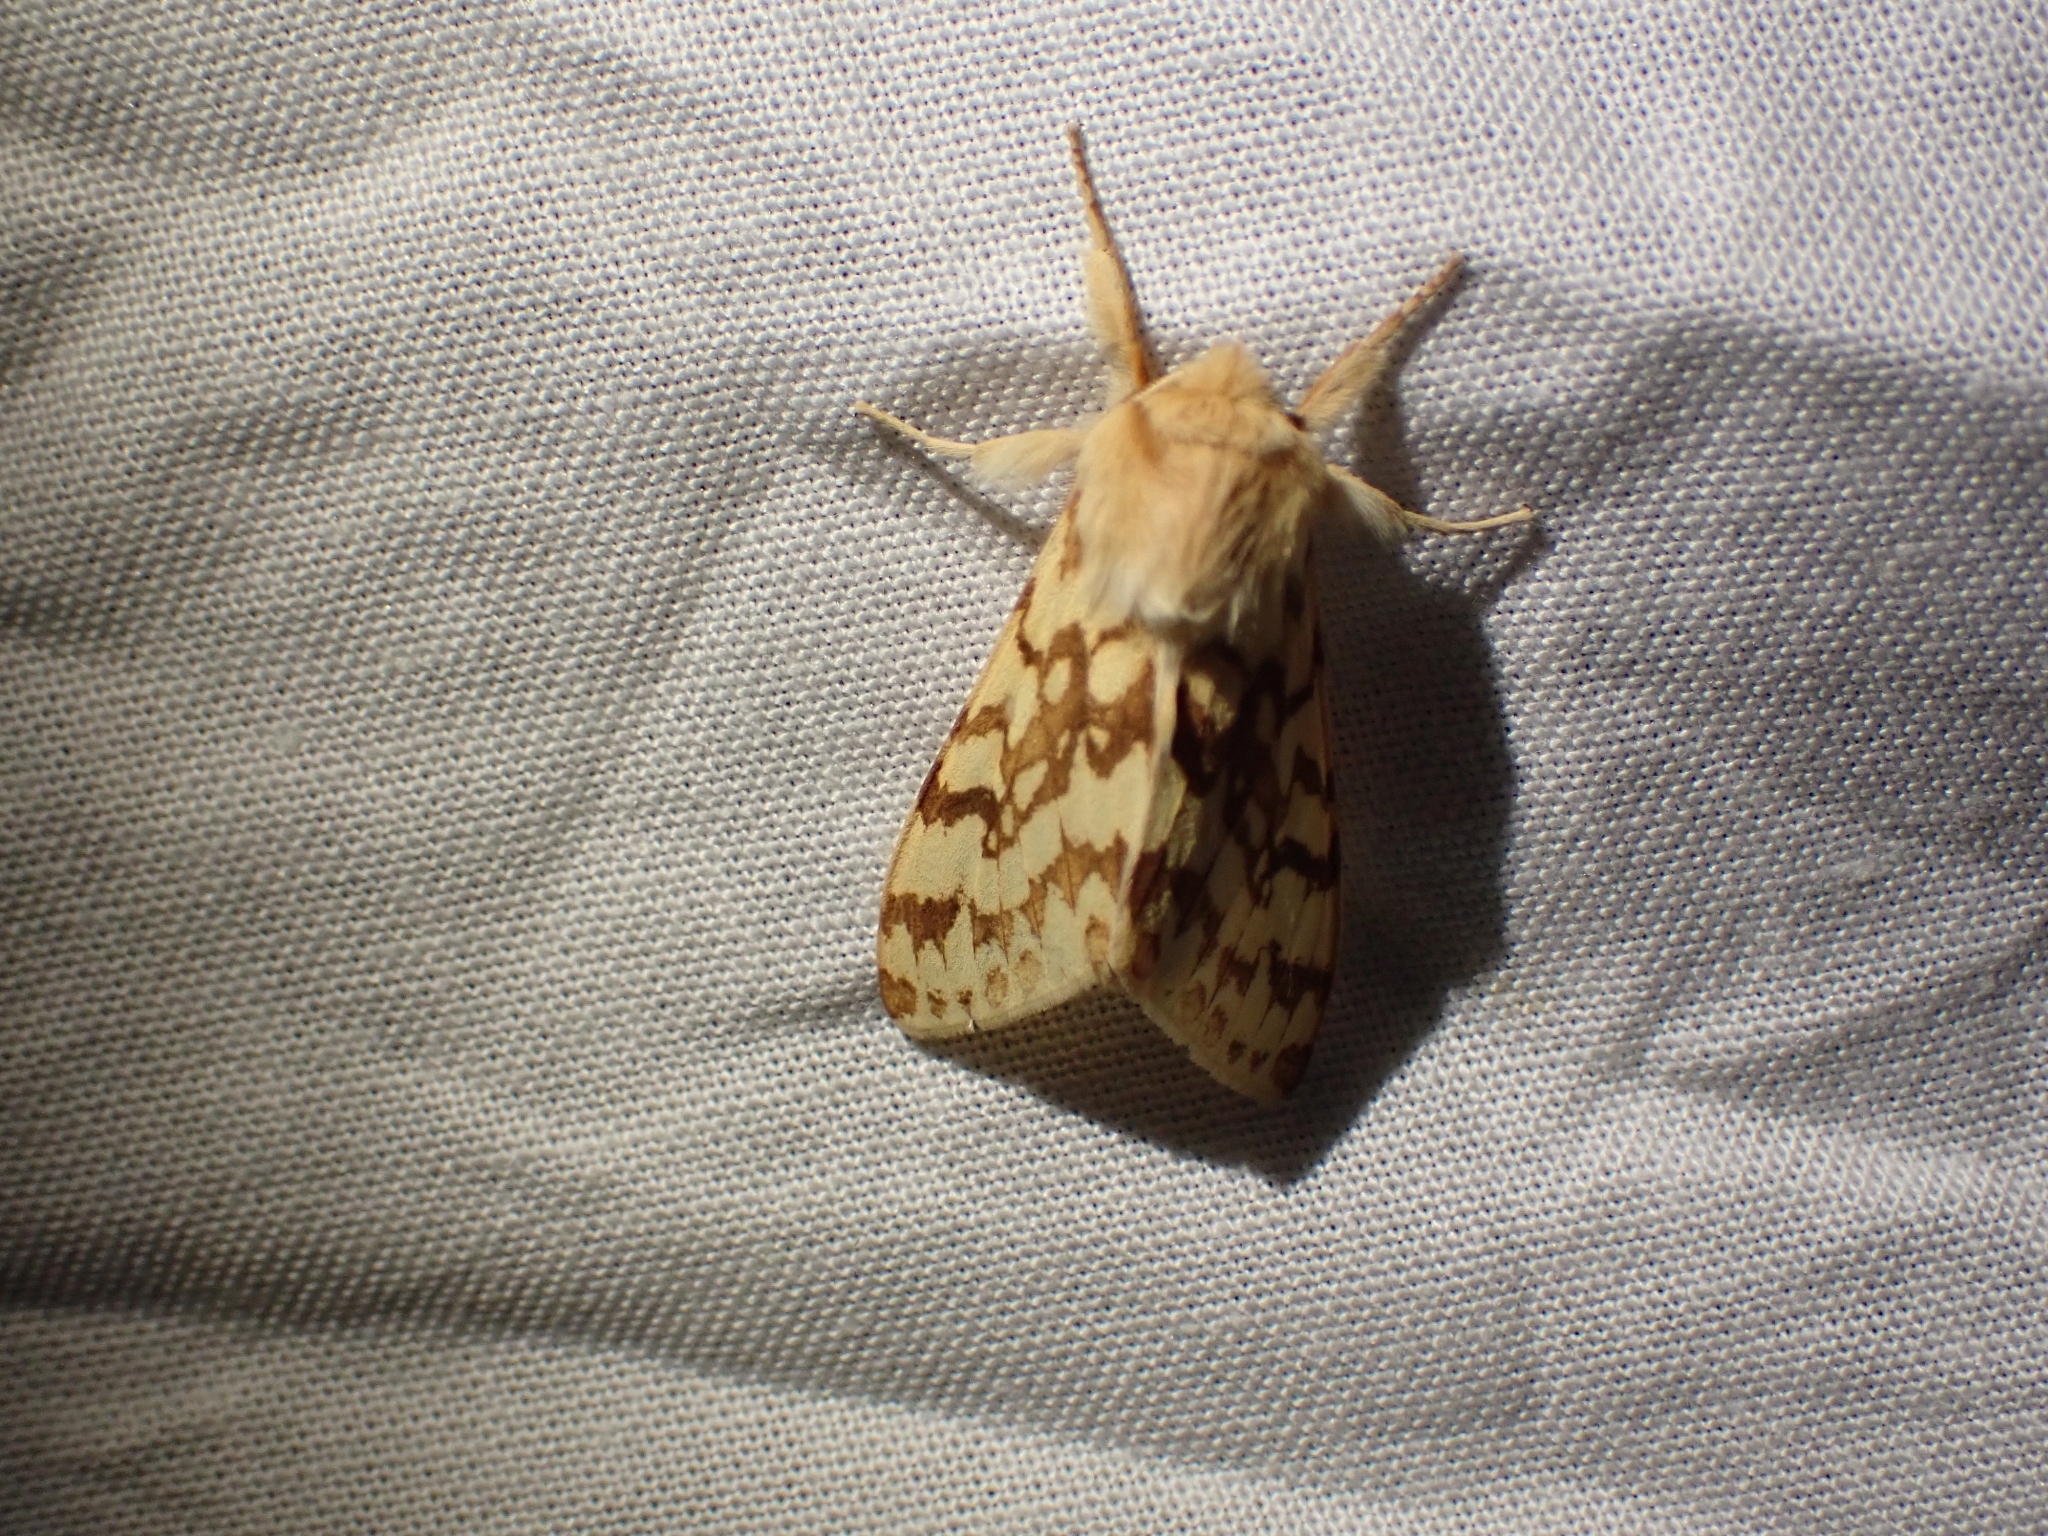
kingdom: Animalia
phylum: Arthropoda
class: Insecta
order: Lepidoptera
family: Erebidae
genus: Lophocampa
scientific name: Lophocampa maculata
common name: Spotted tussock moth
